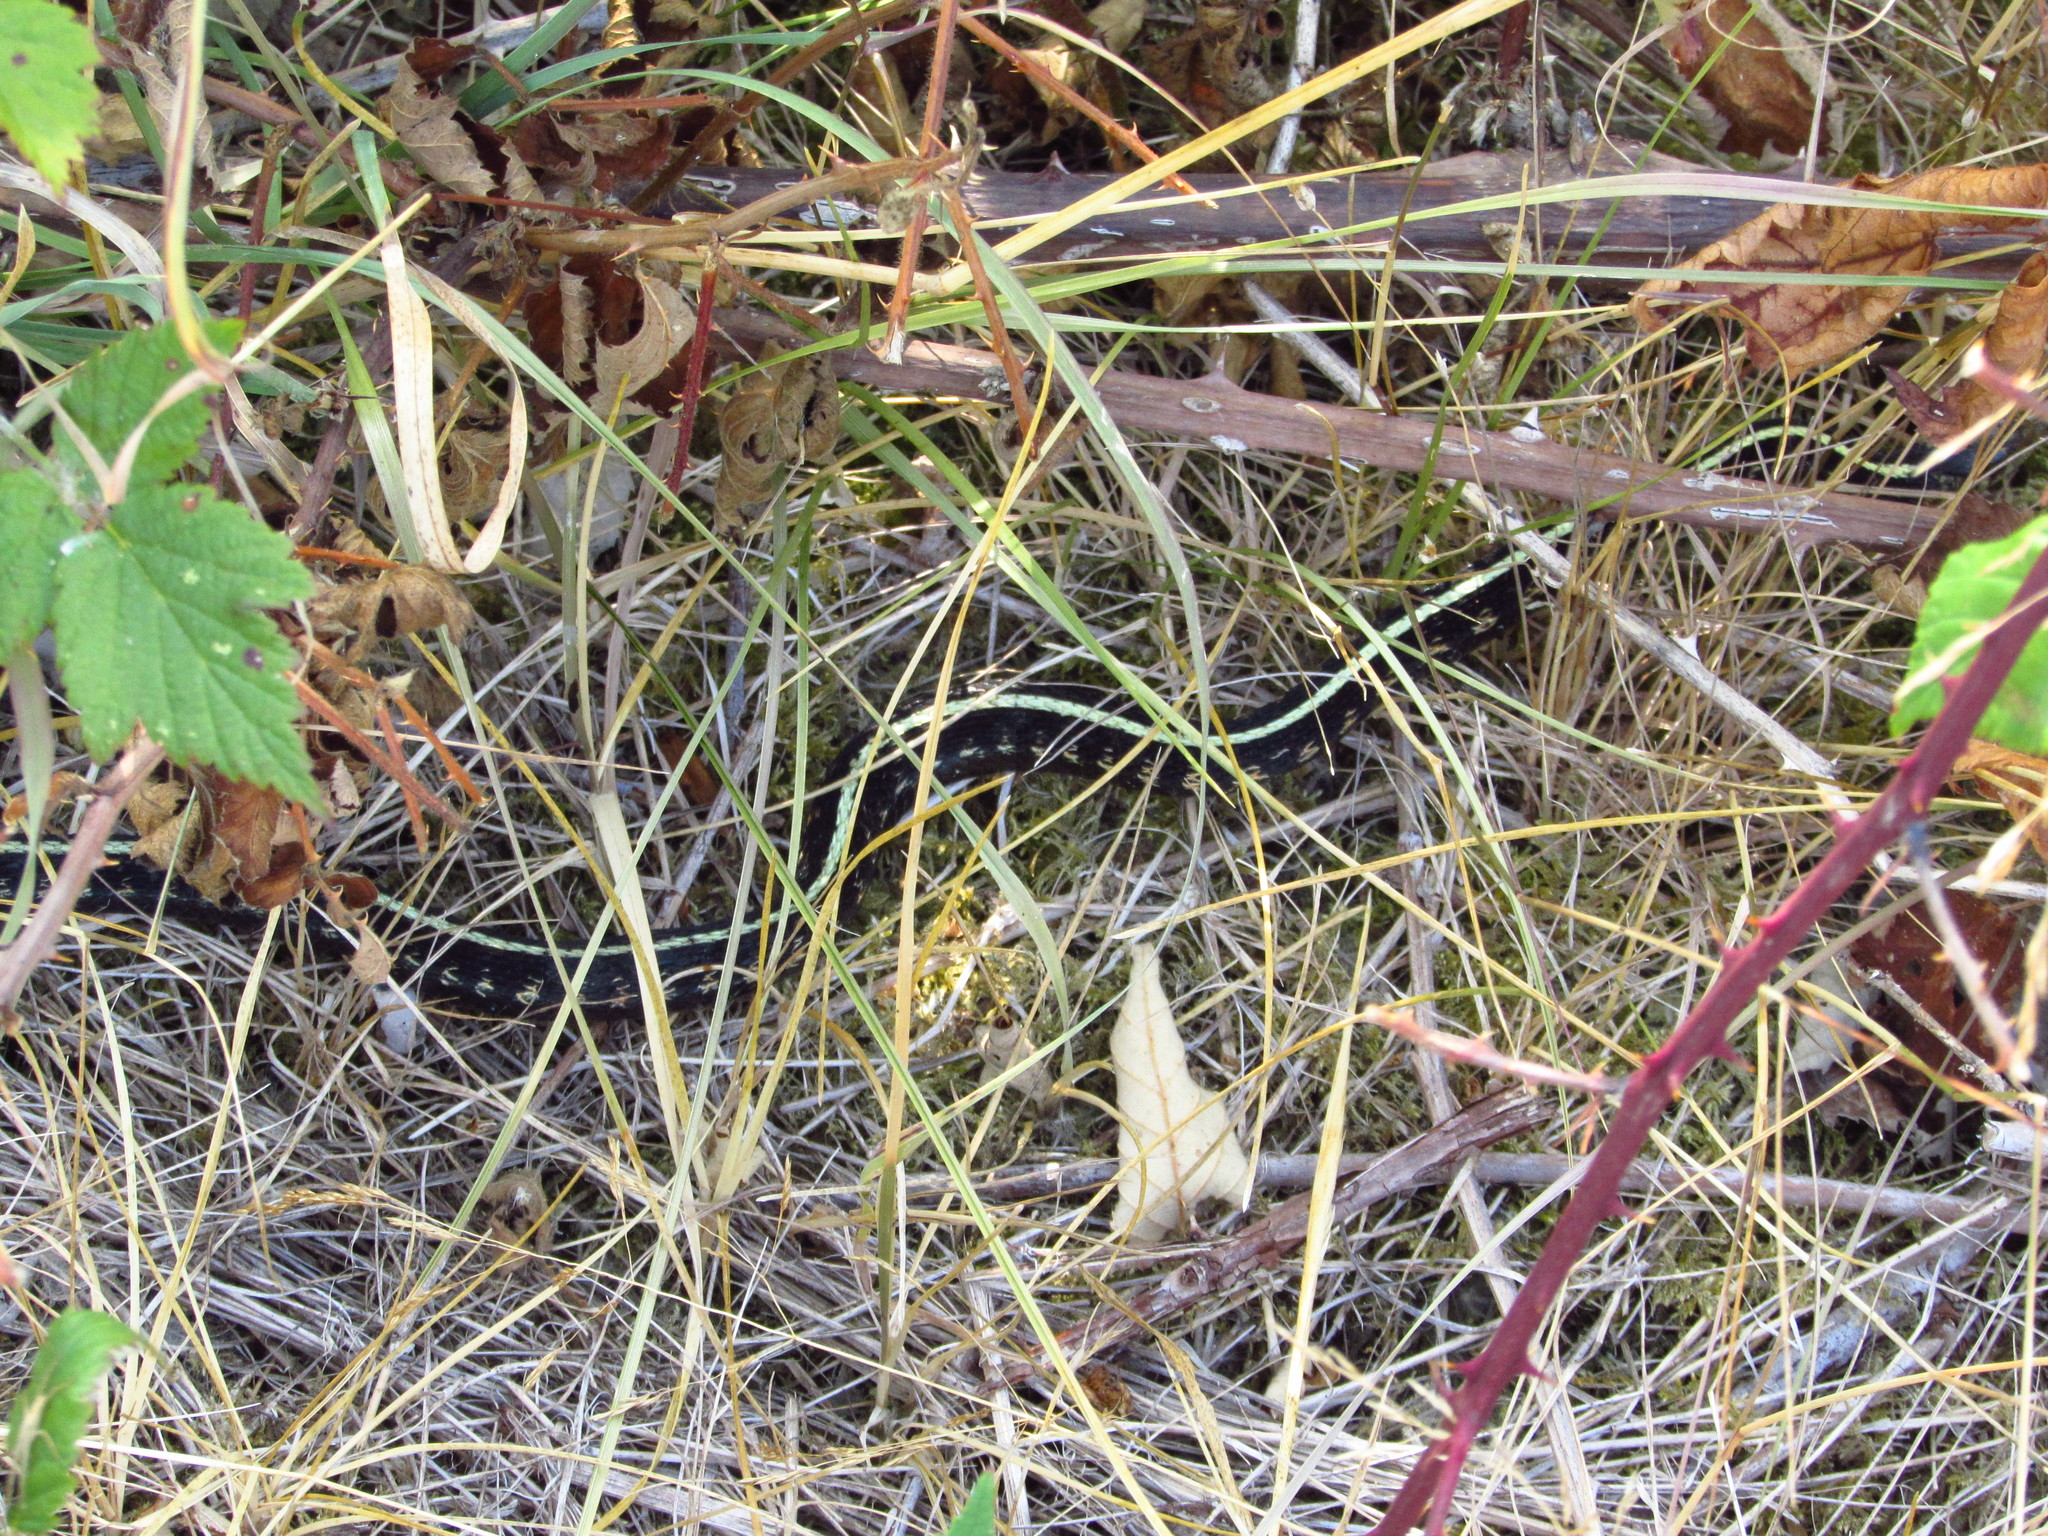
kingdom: Animalia
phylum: Chordata
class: Squamata
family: Colubridae
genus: Thamnophis
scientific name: Thamnophis sirtalis
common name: Common garter snake
